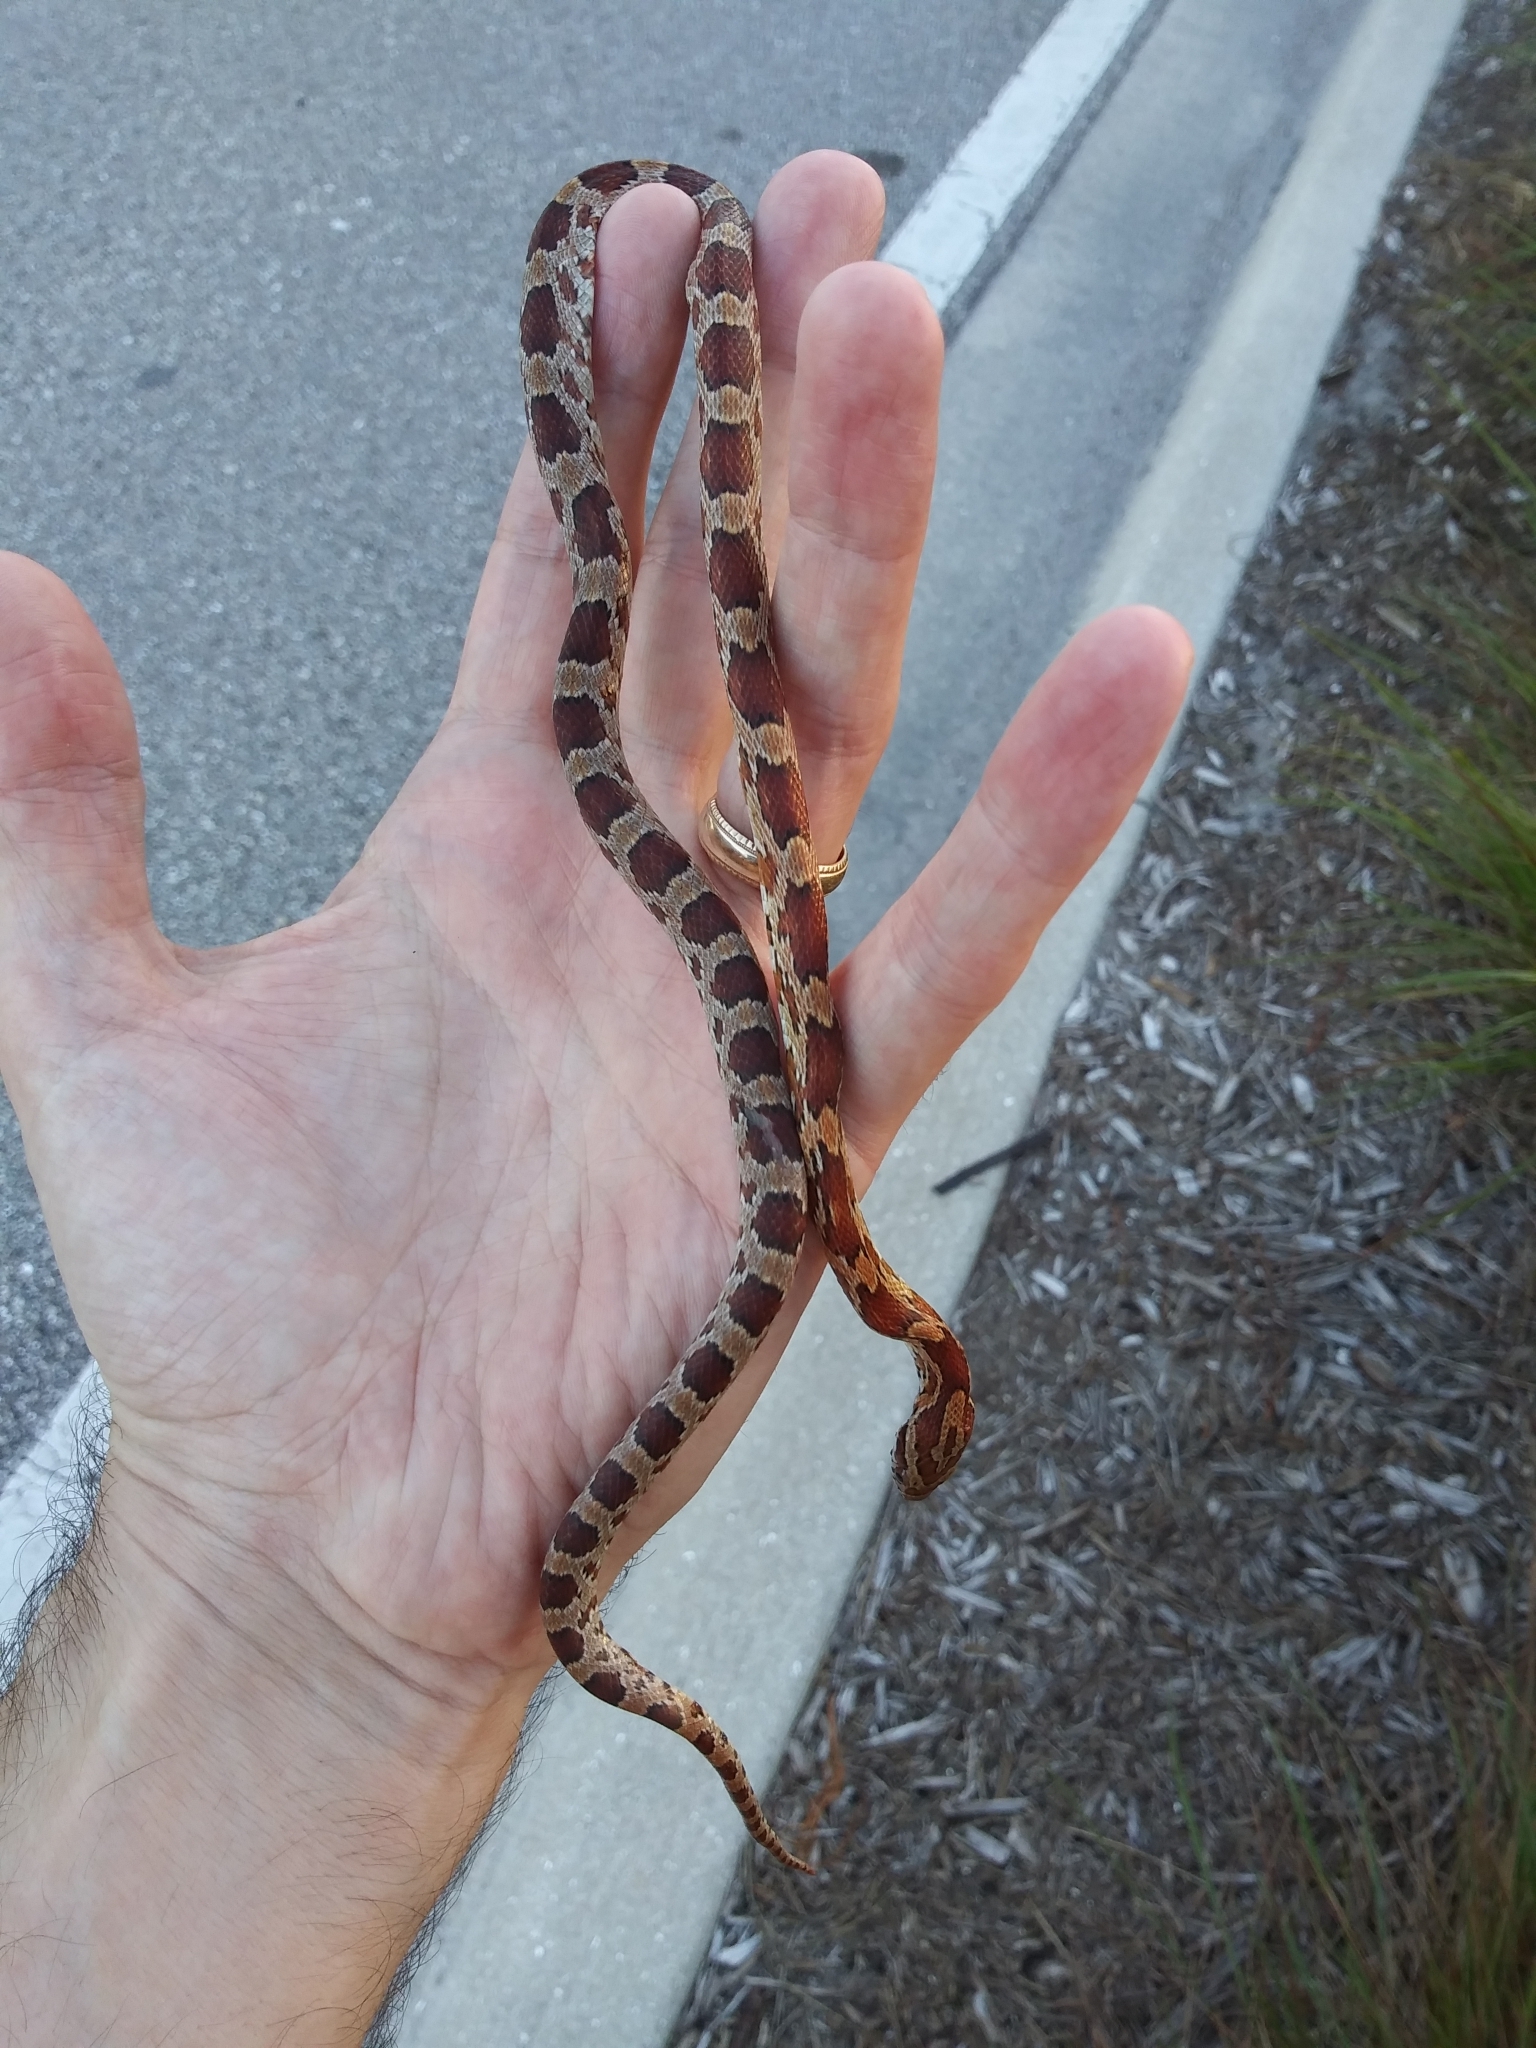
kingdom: Animalia
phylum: Chordata
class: Squamata
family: Colubridae
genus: Pantherophis
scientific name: Pantherophis guttatus
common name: Red cornsnake
